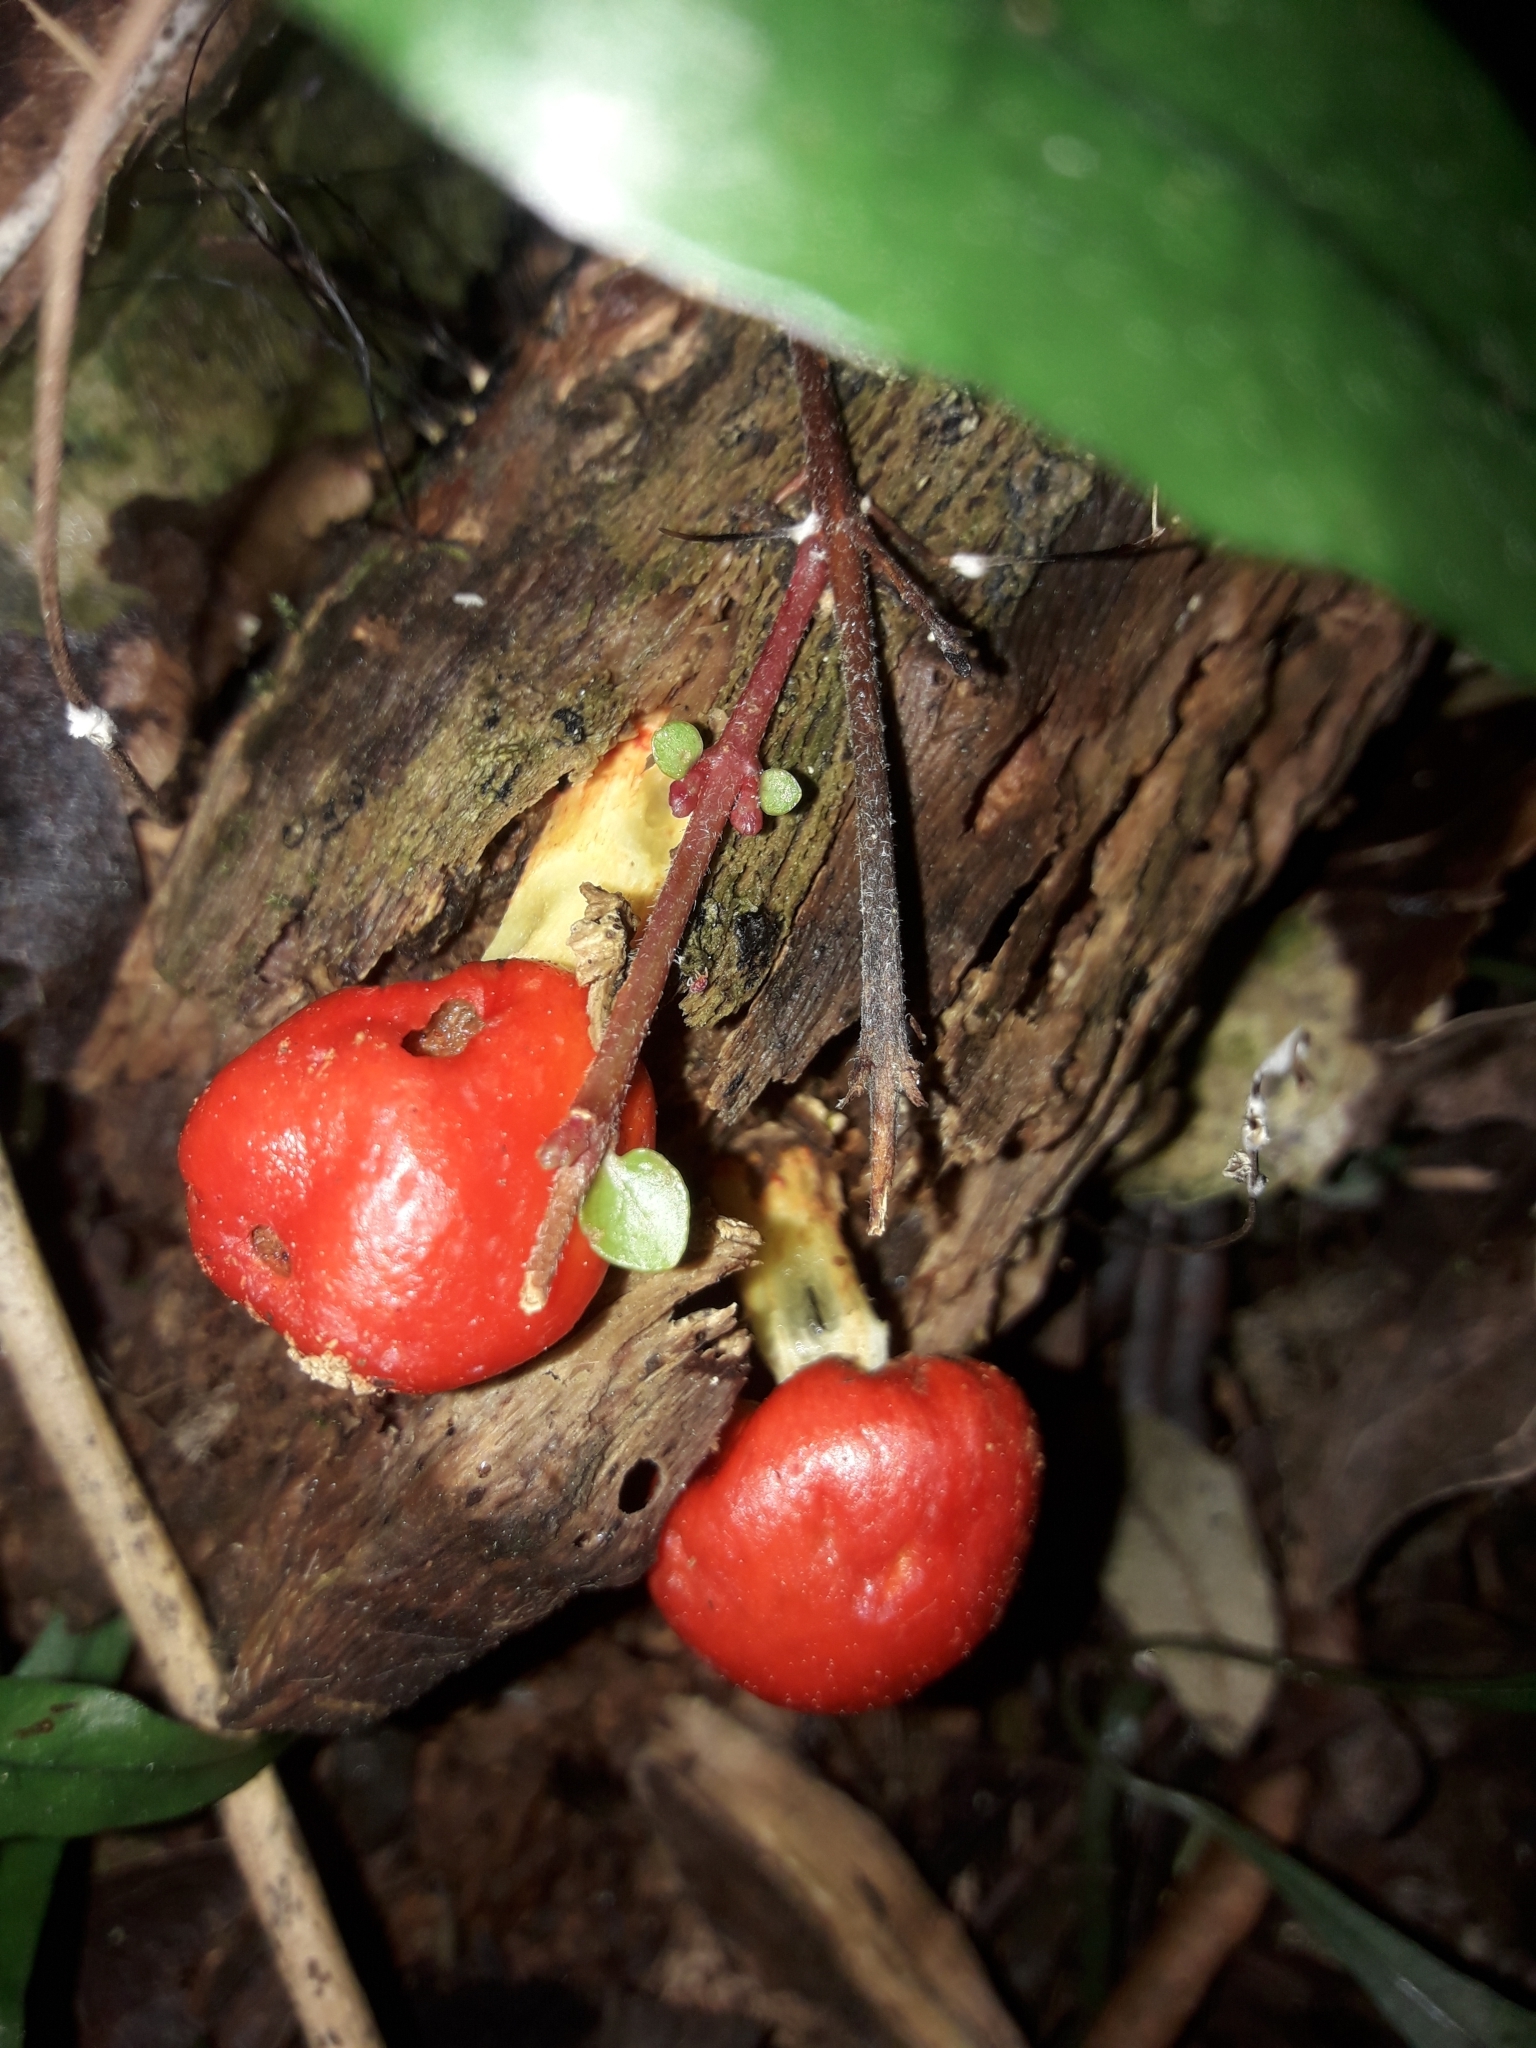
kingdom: Fungi
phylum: Basidiomycota
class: Agaricomycetes
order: Agaricales
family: Strophariaceae
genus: Leratiomyces
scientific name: Leratiomyces erythrocephalus
